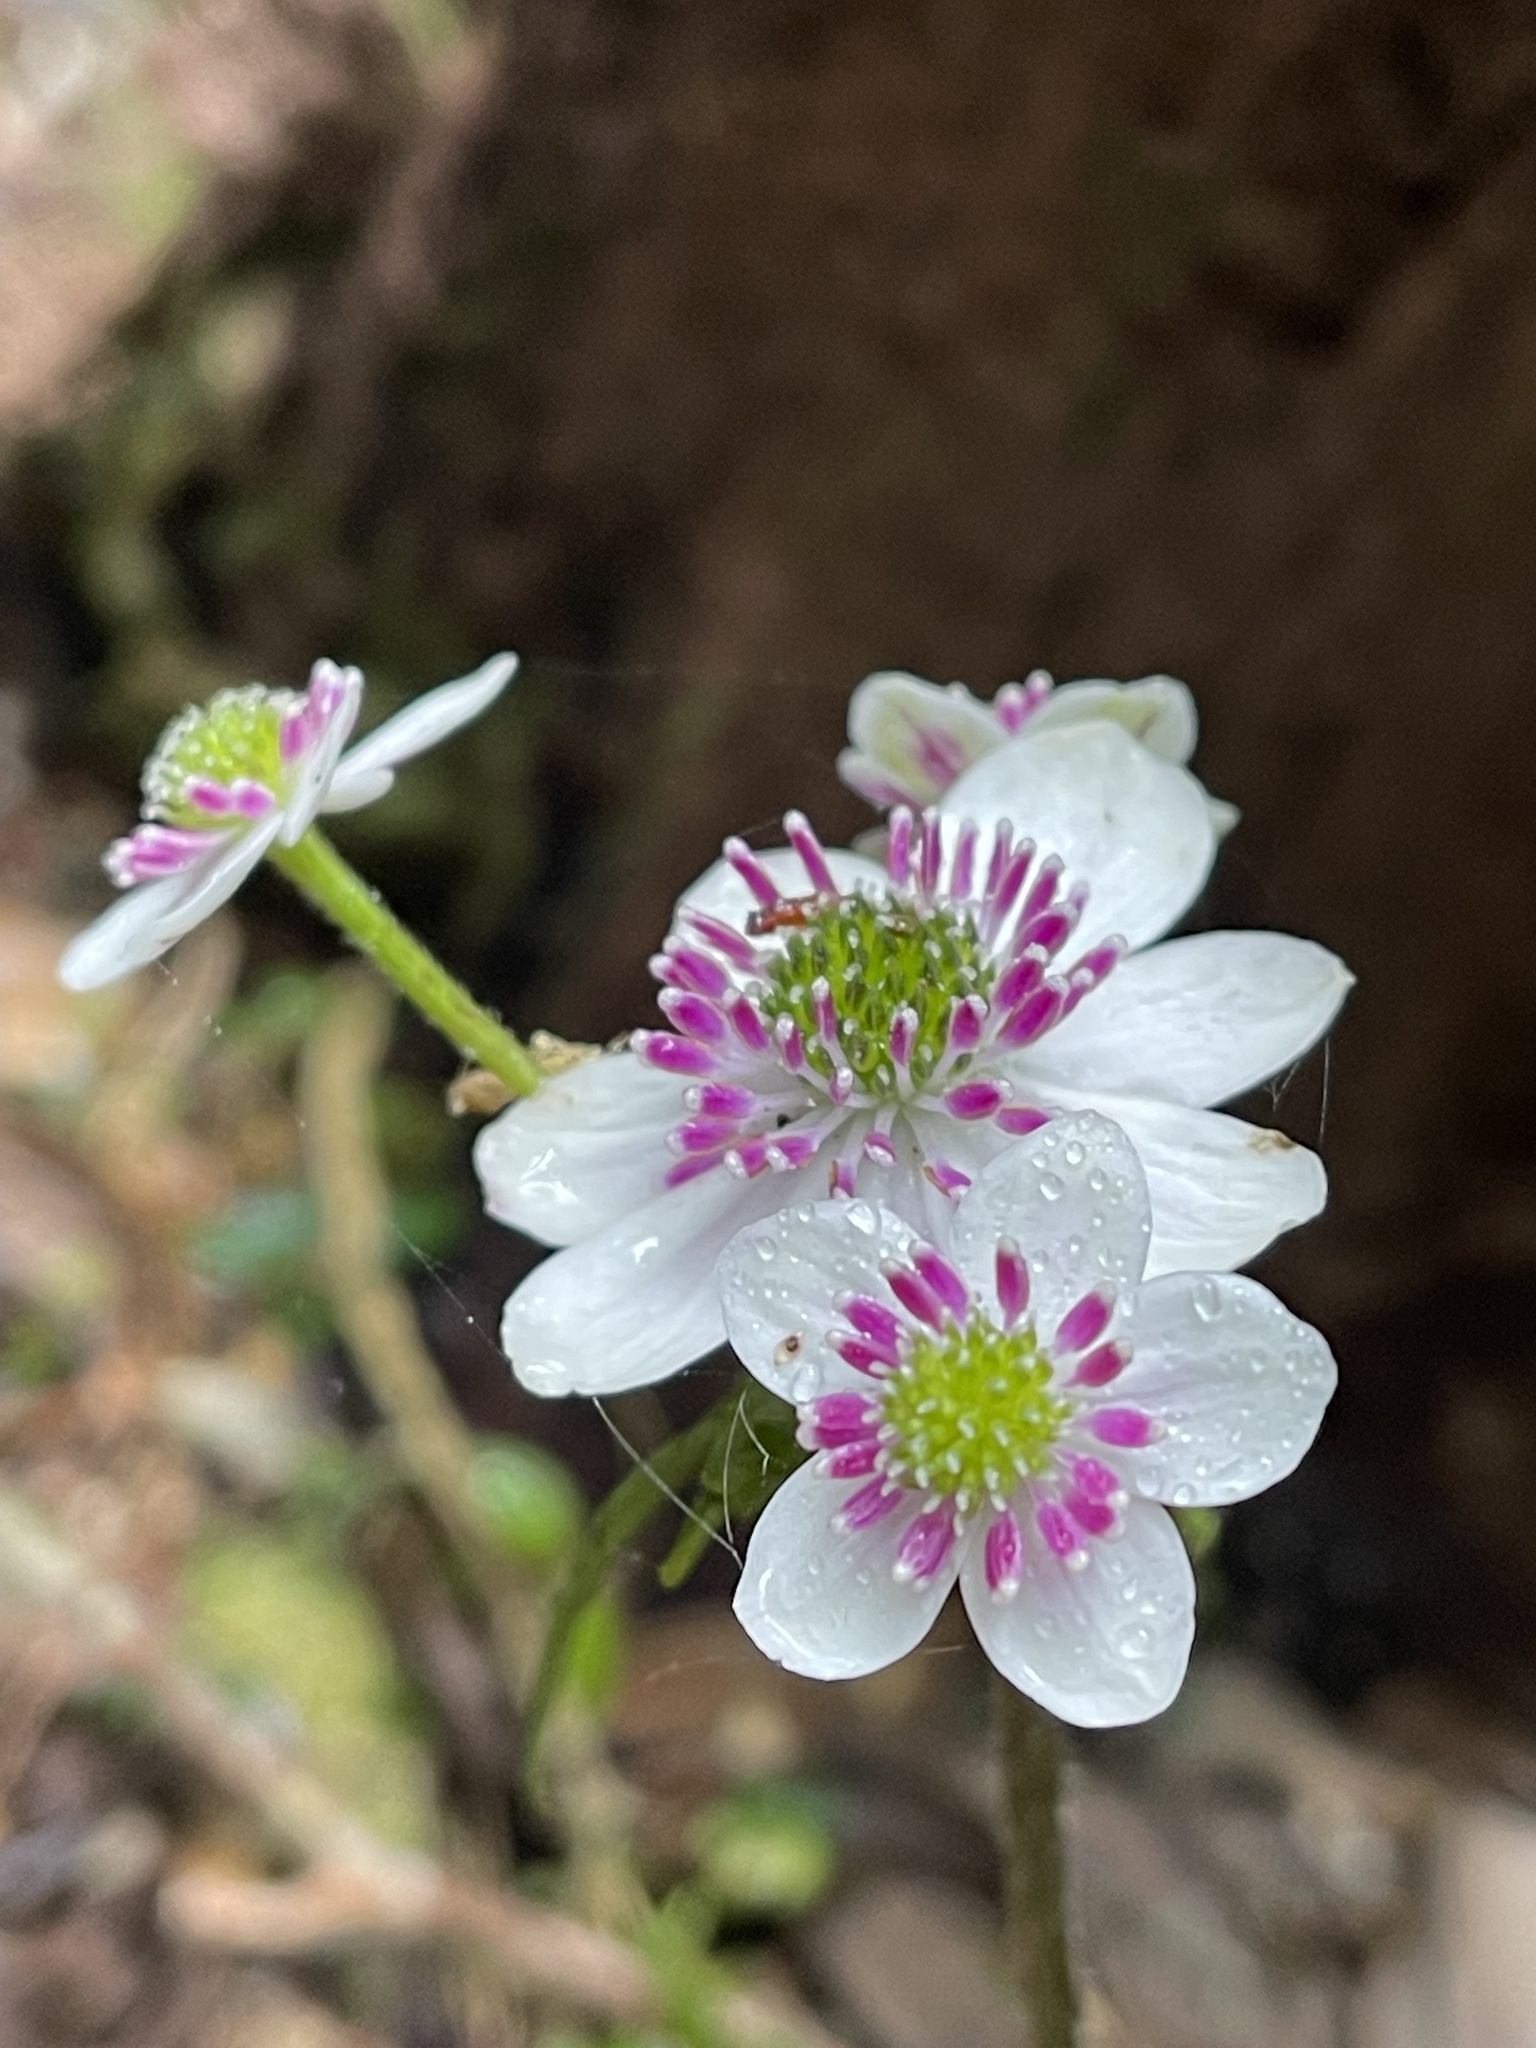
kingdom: Plantae
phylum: Tracheophyta
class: Magnoliopsida
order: Ranunculales
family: Ranunculaceae
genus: Knowltonia
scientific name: Knowltonia hepaticifolia
